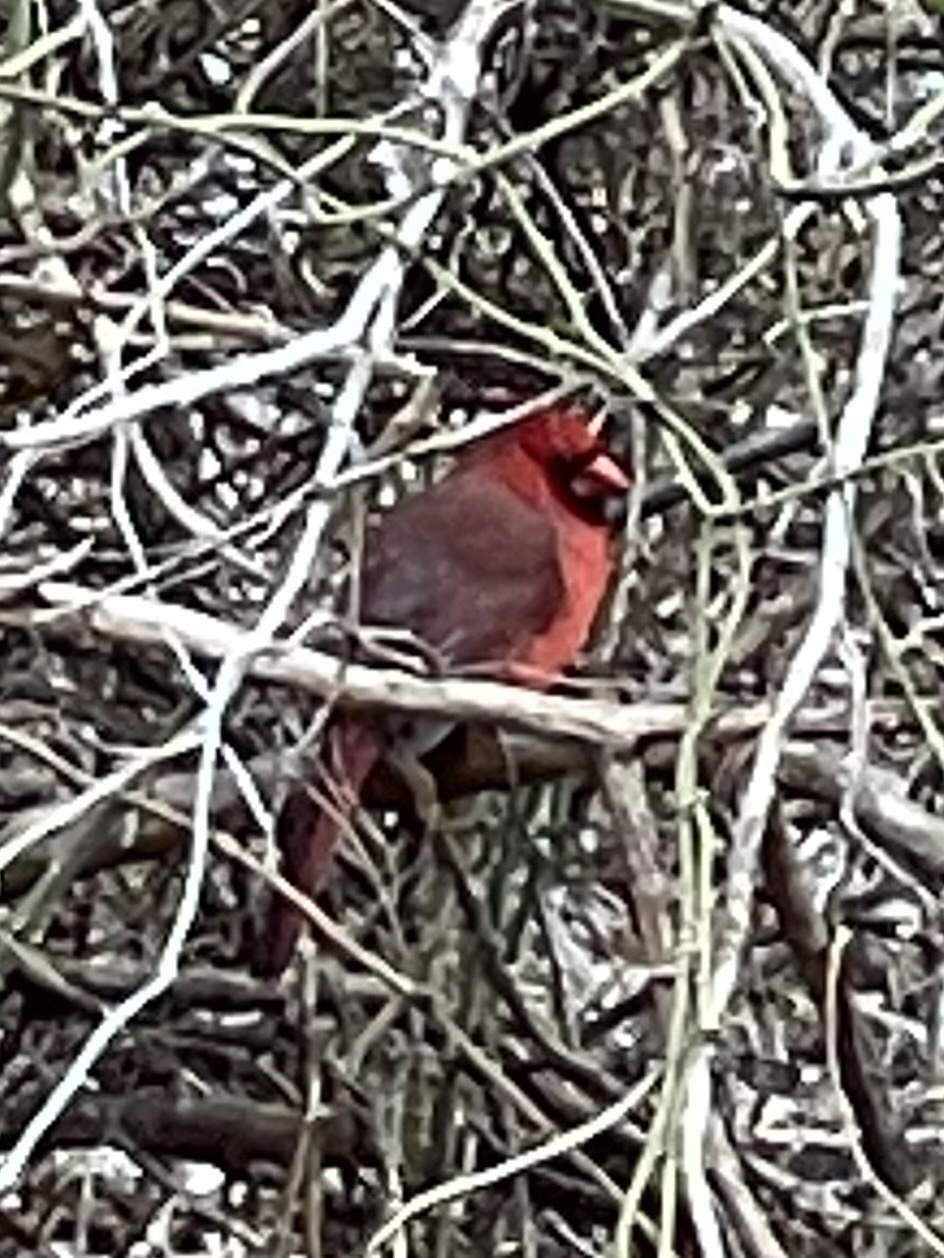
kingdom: Animalia
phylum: Chordata
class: Aves
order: Passeriformes
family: Cardinalidae
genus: Cardinalis
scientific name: Cardinalis cardinalis
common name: Northern cardinal
